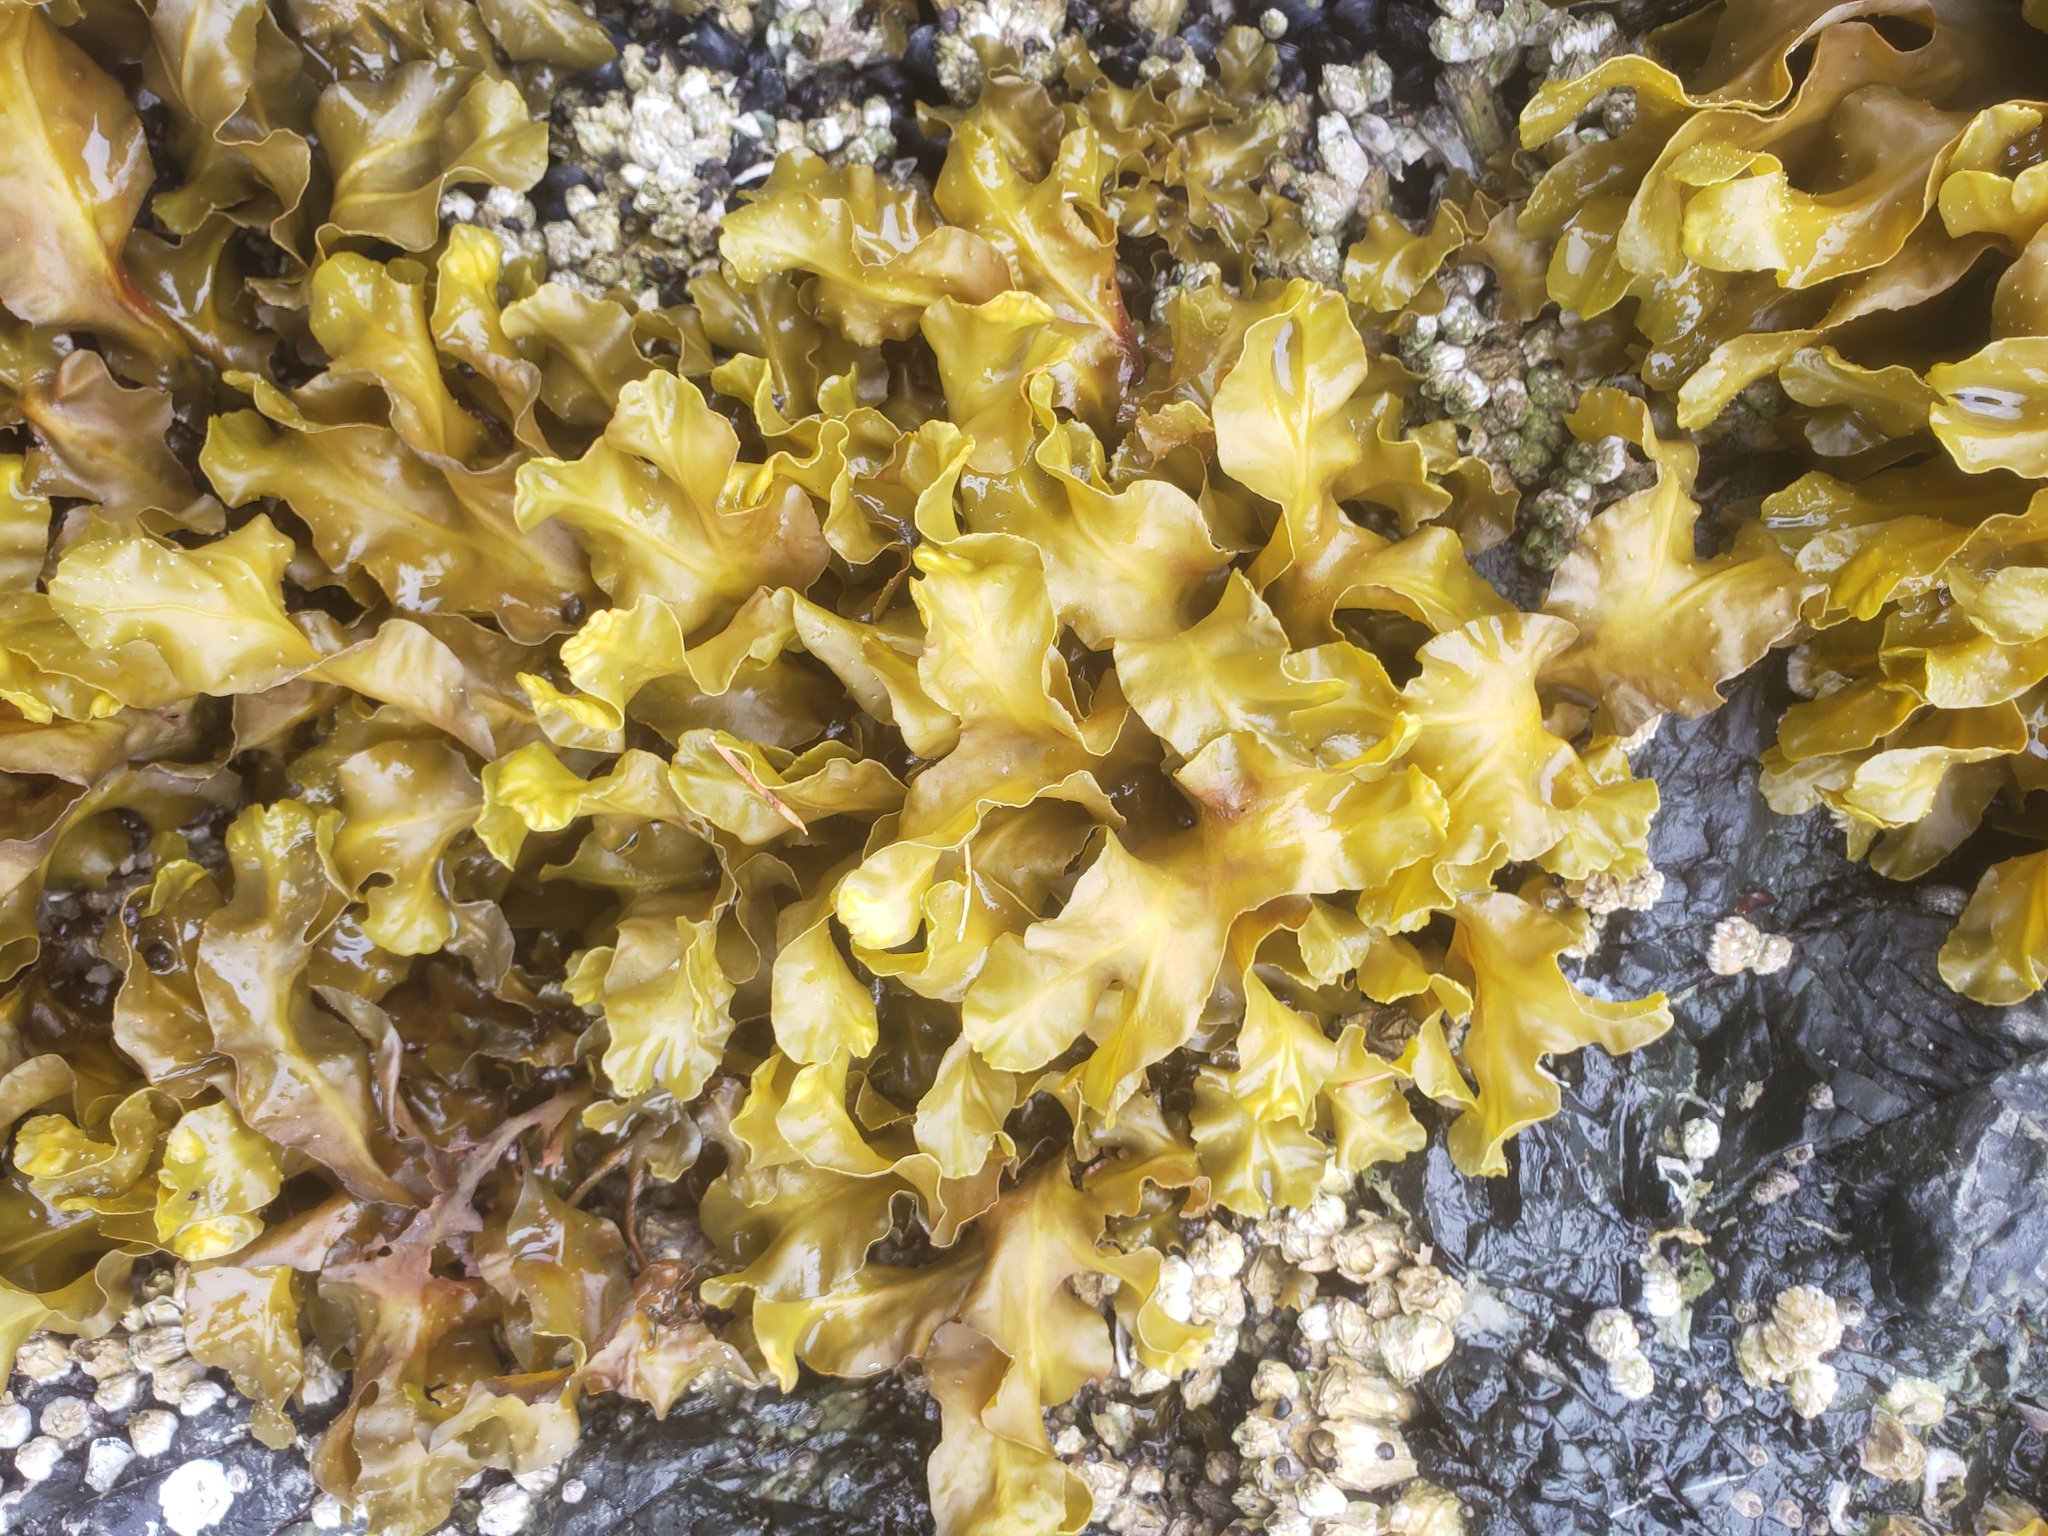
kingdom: Chromista
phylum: Ochrophyta
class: Phaeophyceae
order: Fucales
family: Fucaceae
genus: Fucus
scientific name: Fucus distichus
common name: Rockweed
